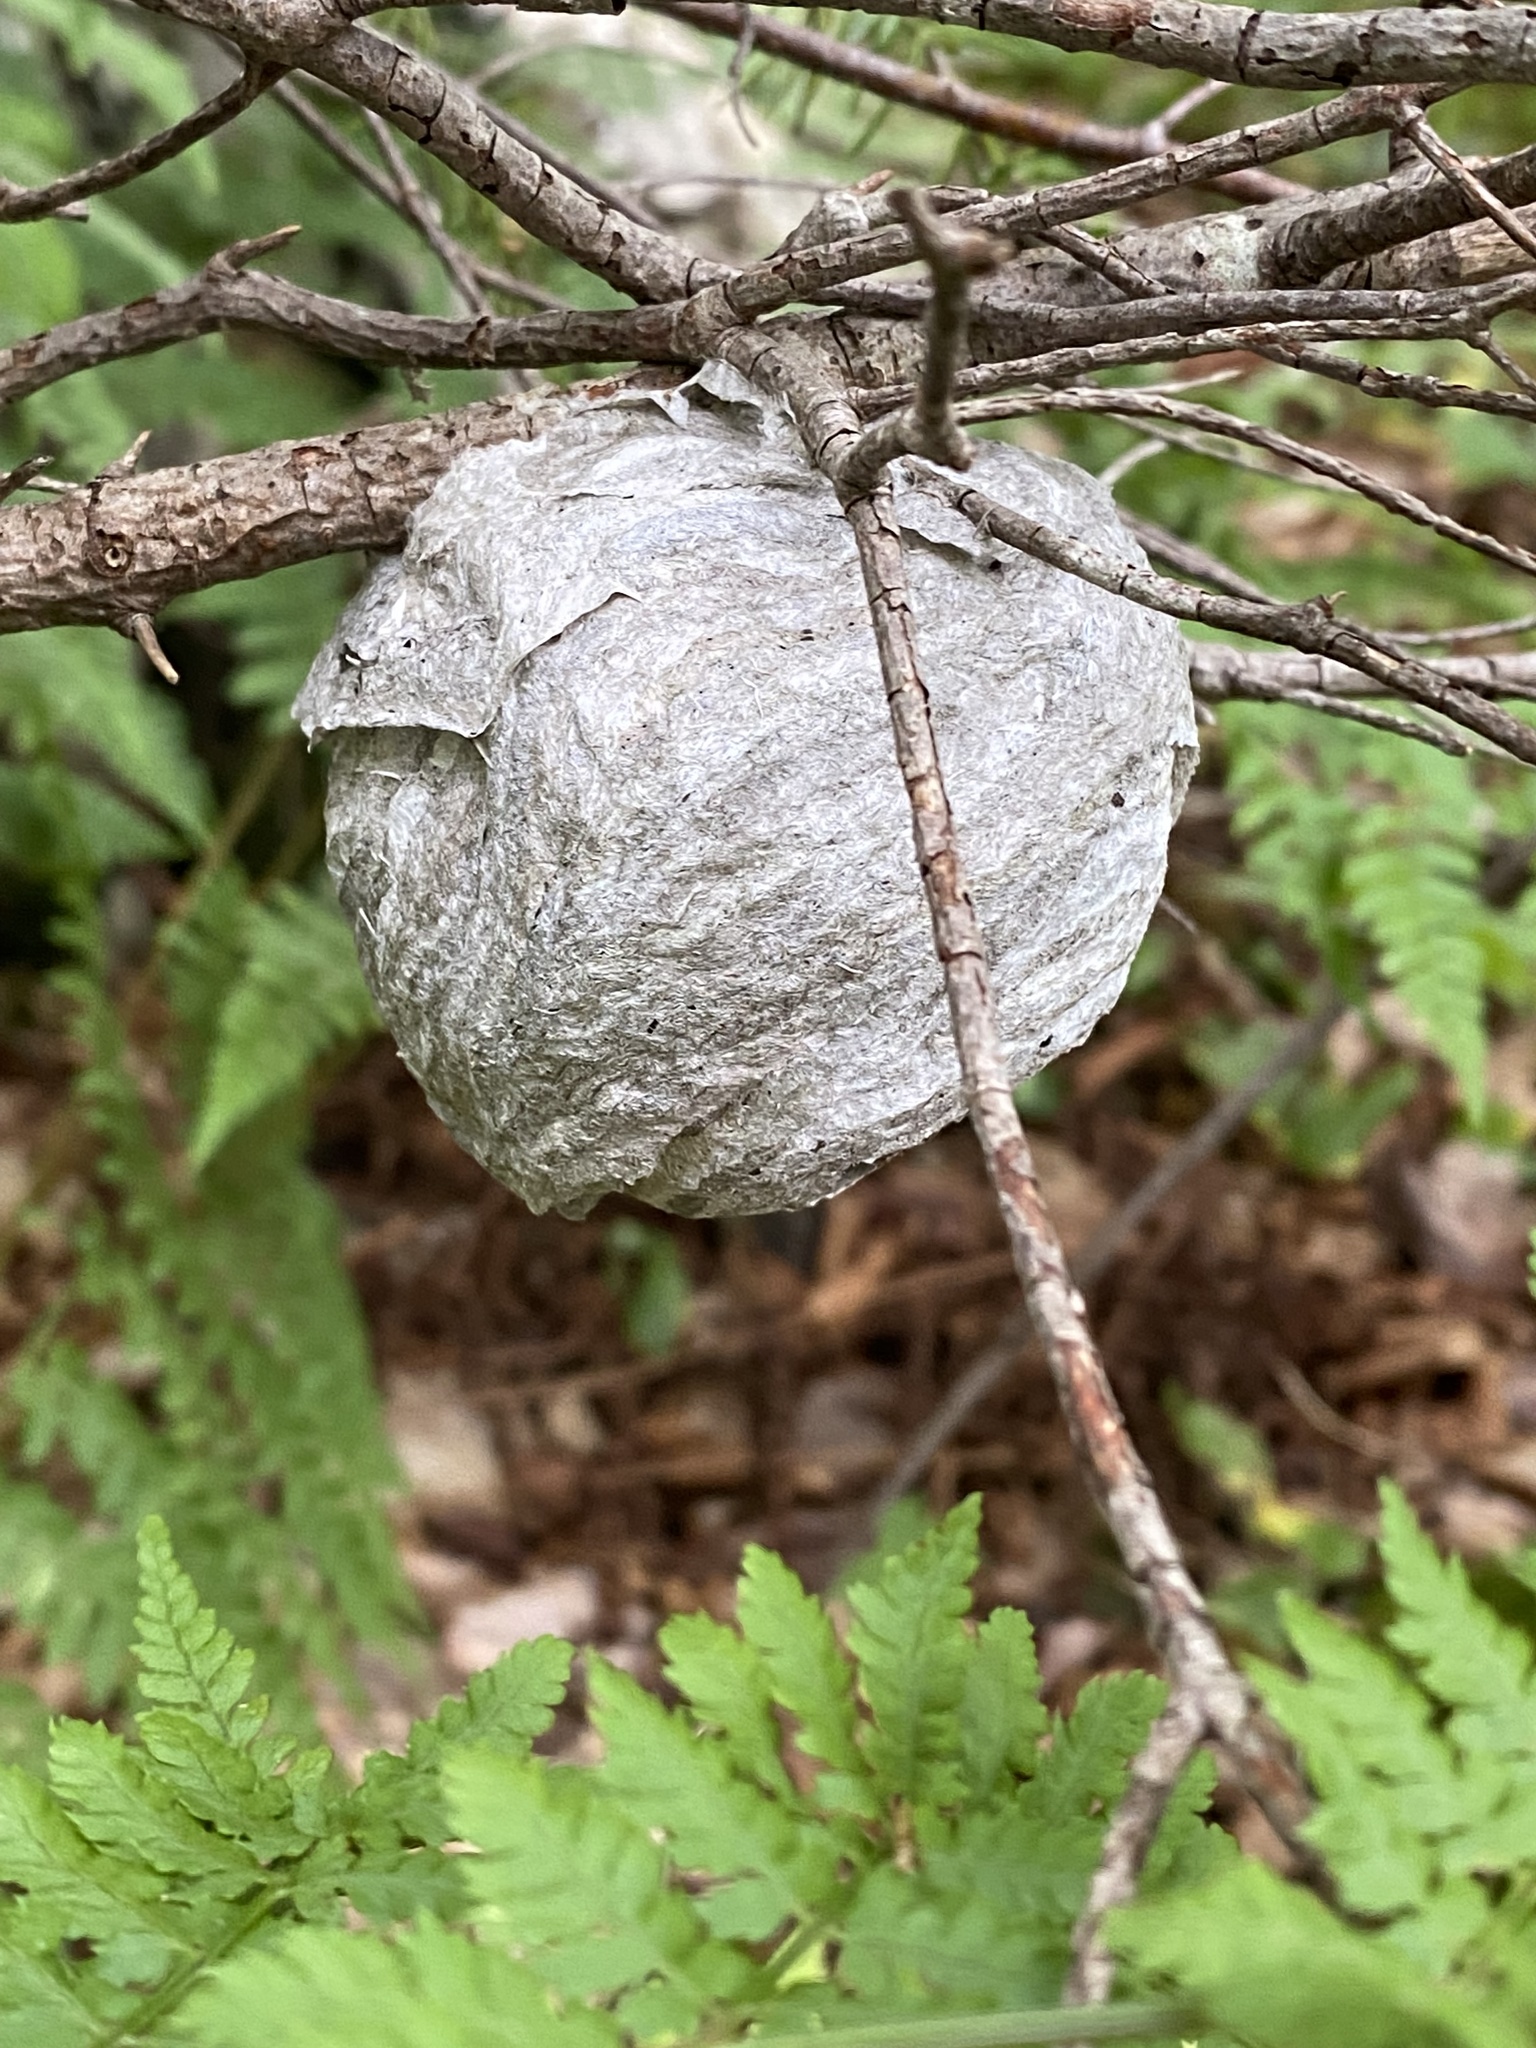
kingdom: Animalia
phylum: Arthropoda
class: Insecta
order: Hymenoptera
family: Vespidae
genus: Dolichovespula
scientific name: Dolichovespula arenaria
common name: Aerial yellowjacket
